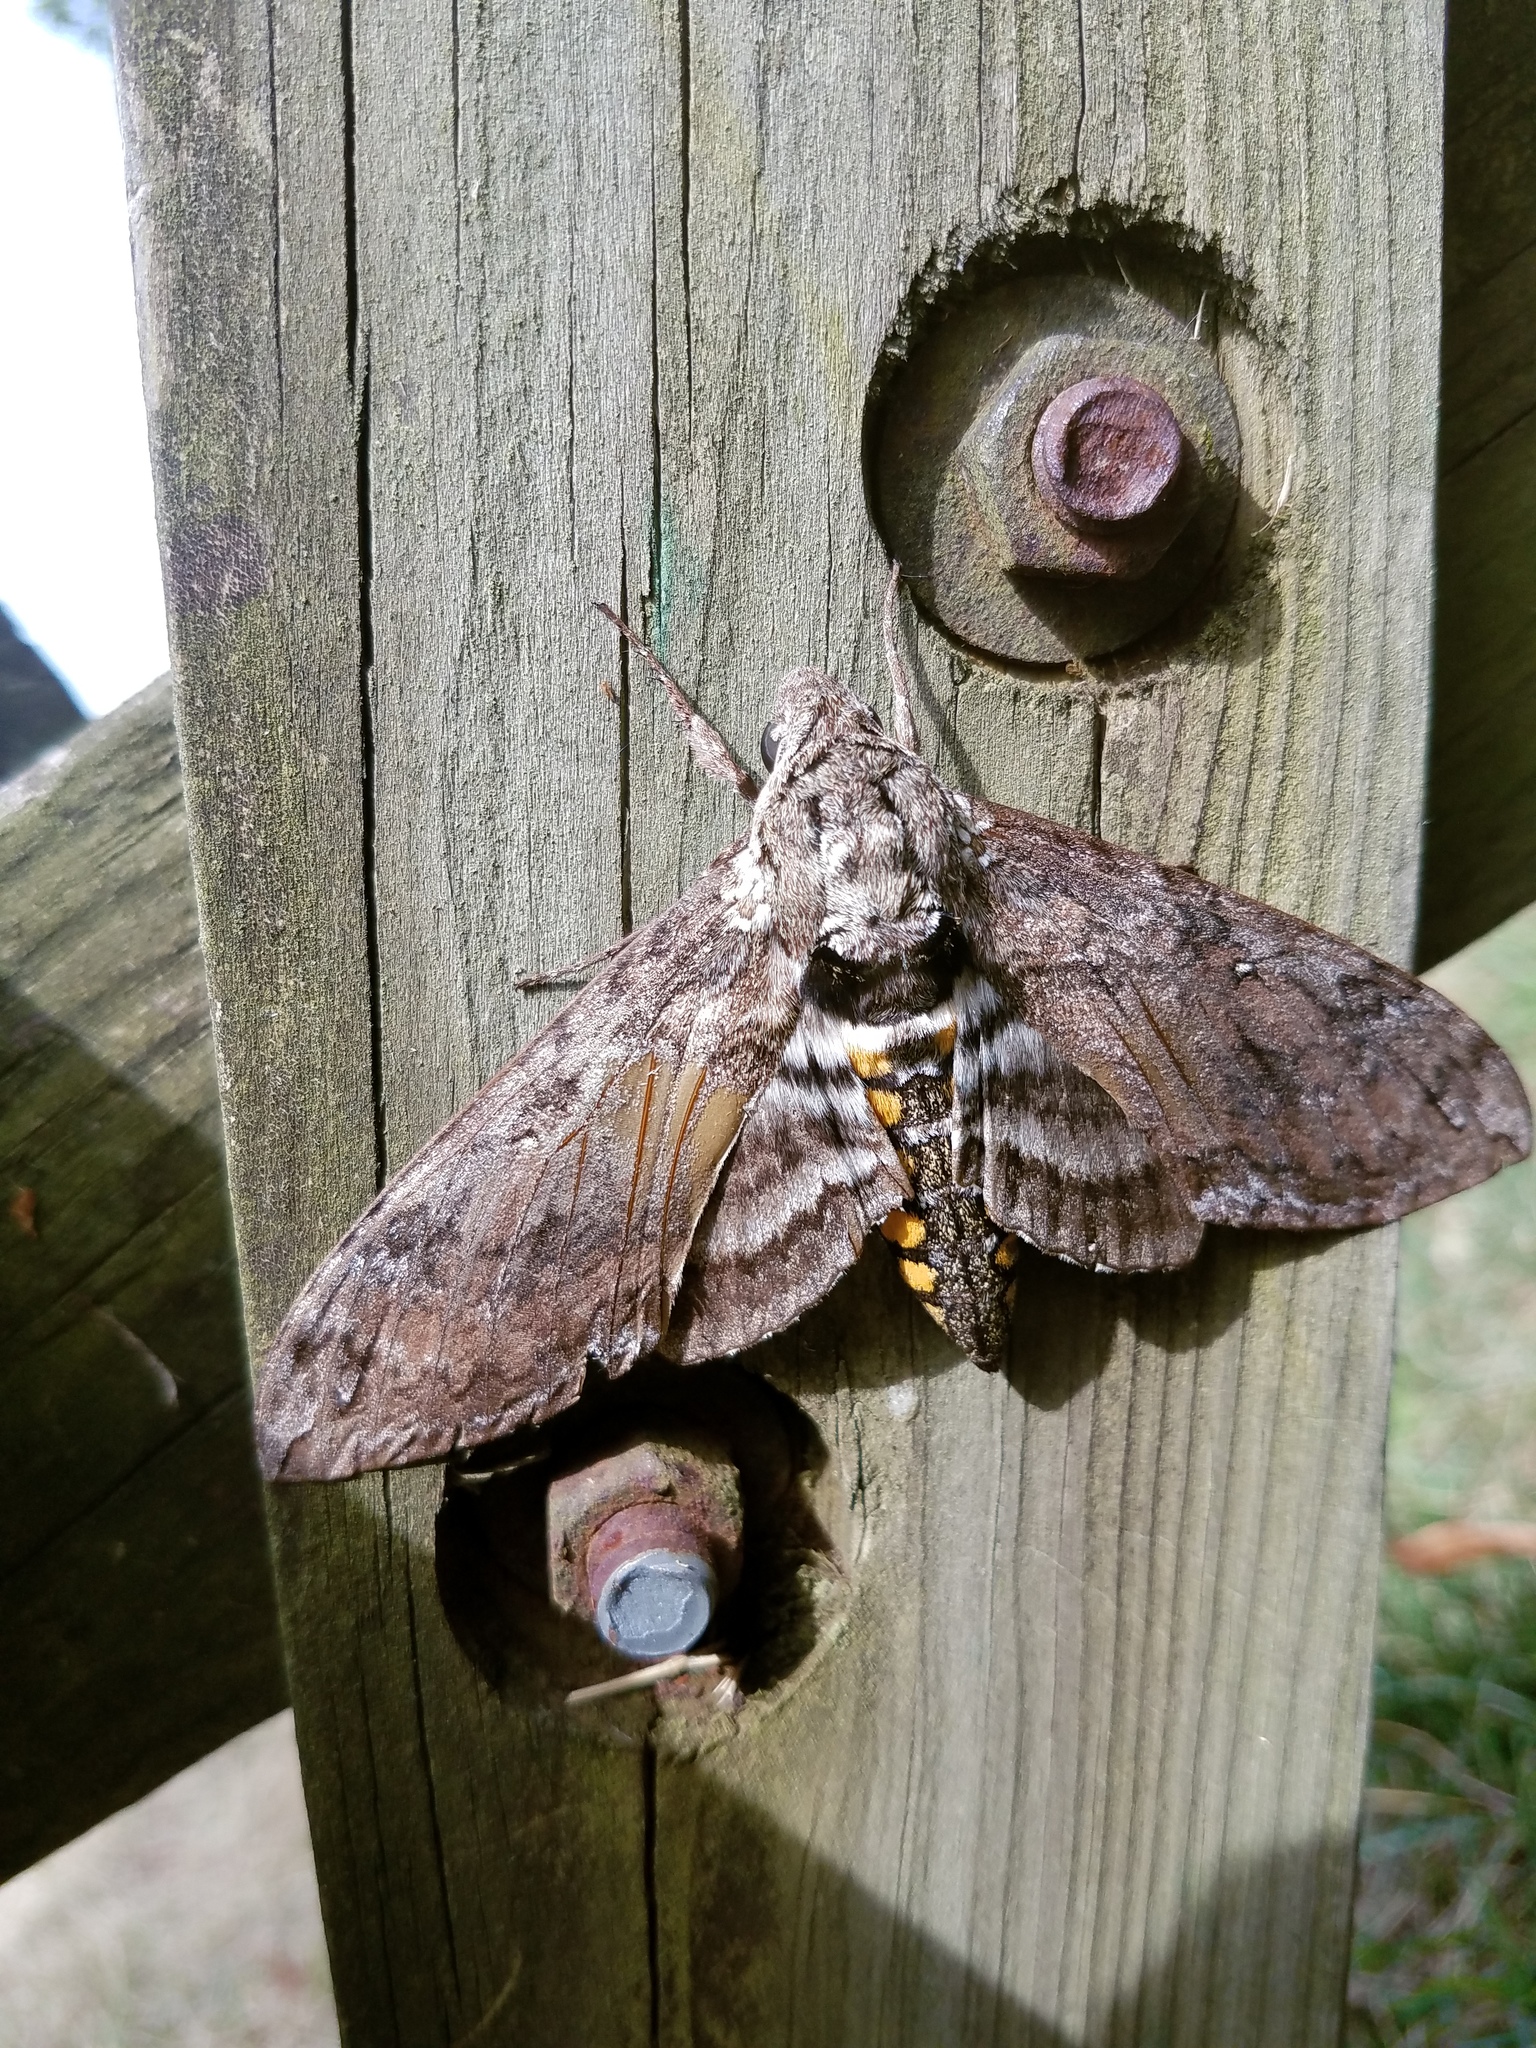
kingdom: Animalia
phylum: Arthropoda
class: Insecta
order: Lepidoptera
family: Sphingidae
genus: Manduca
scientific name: Manduca sexta
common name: Carolina sphinx
